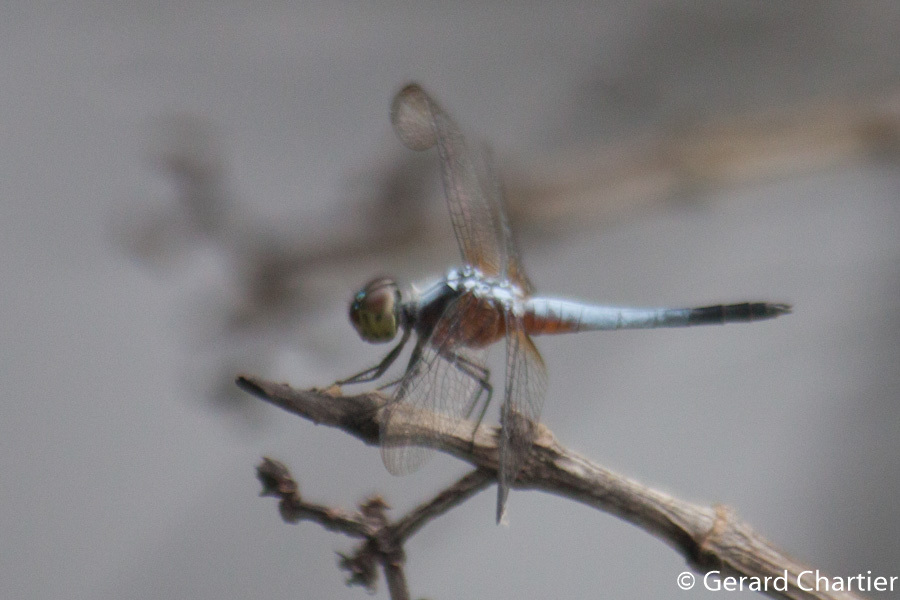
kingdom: Animalia
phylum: Arthropoda
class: Insecta
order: Odonata
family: Libellulidae
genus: Brachydiplax
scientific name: Brachydiplax chalybea
